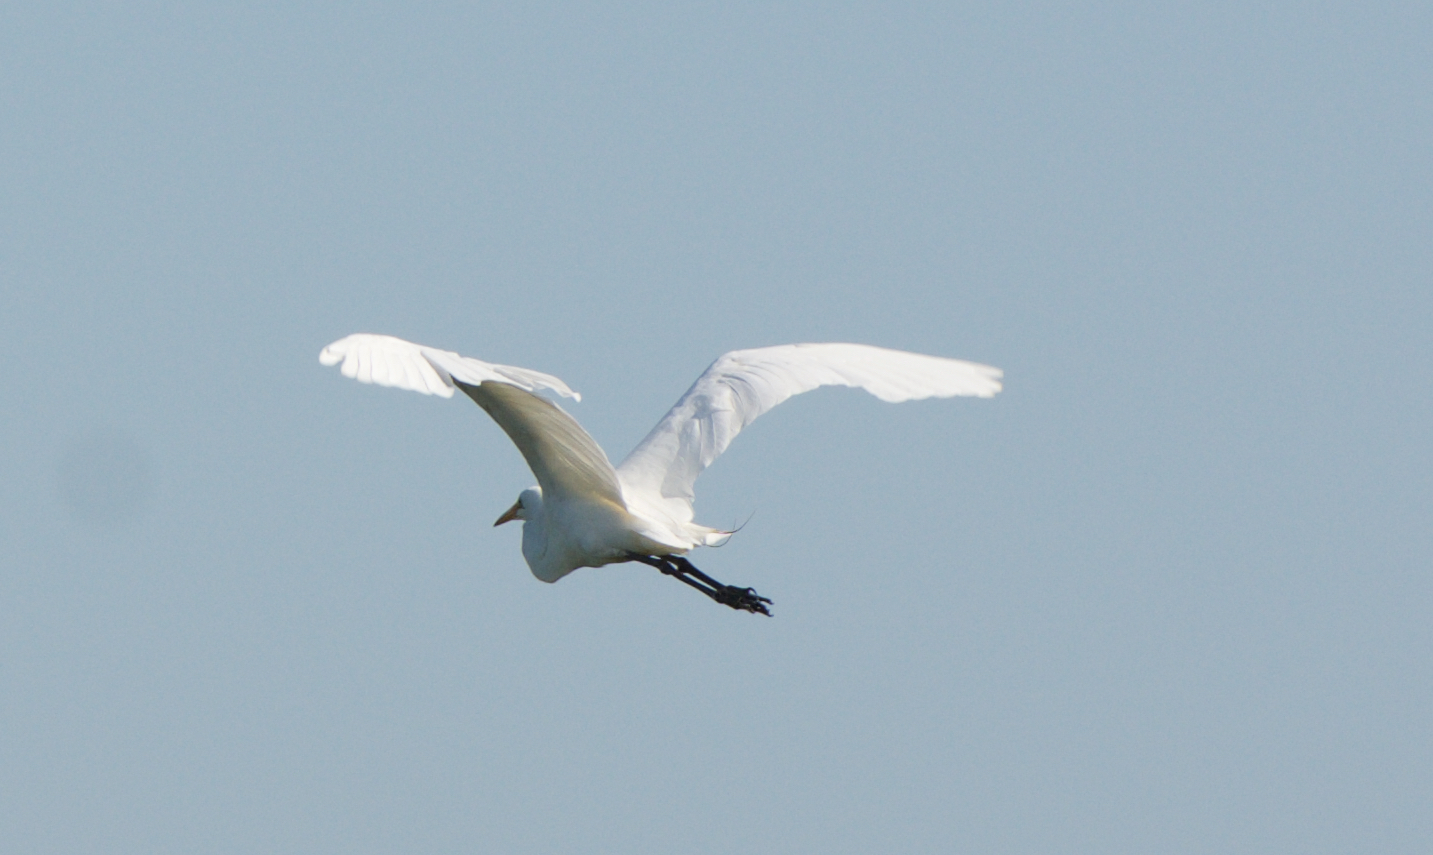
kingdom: Animalia
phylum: Chordata
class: Aves
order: Pelecaniformes
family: Ardeidae
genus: Ardea
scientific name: Ardea alba
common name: Great egret
